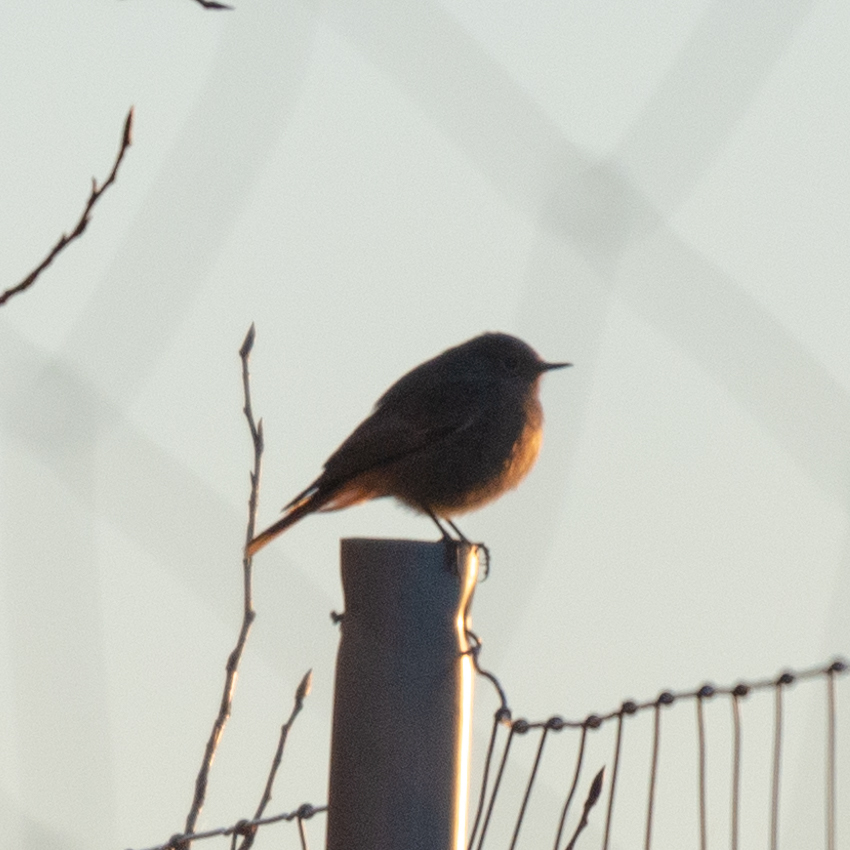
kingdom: Animalia
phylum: Chordata
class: Aves
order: Passeriformes
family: Muscicapidae
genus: Phoenicurus
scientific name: Phoenicurus ochruros
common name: Black redstart
